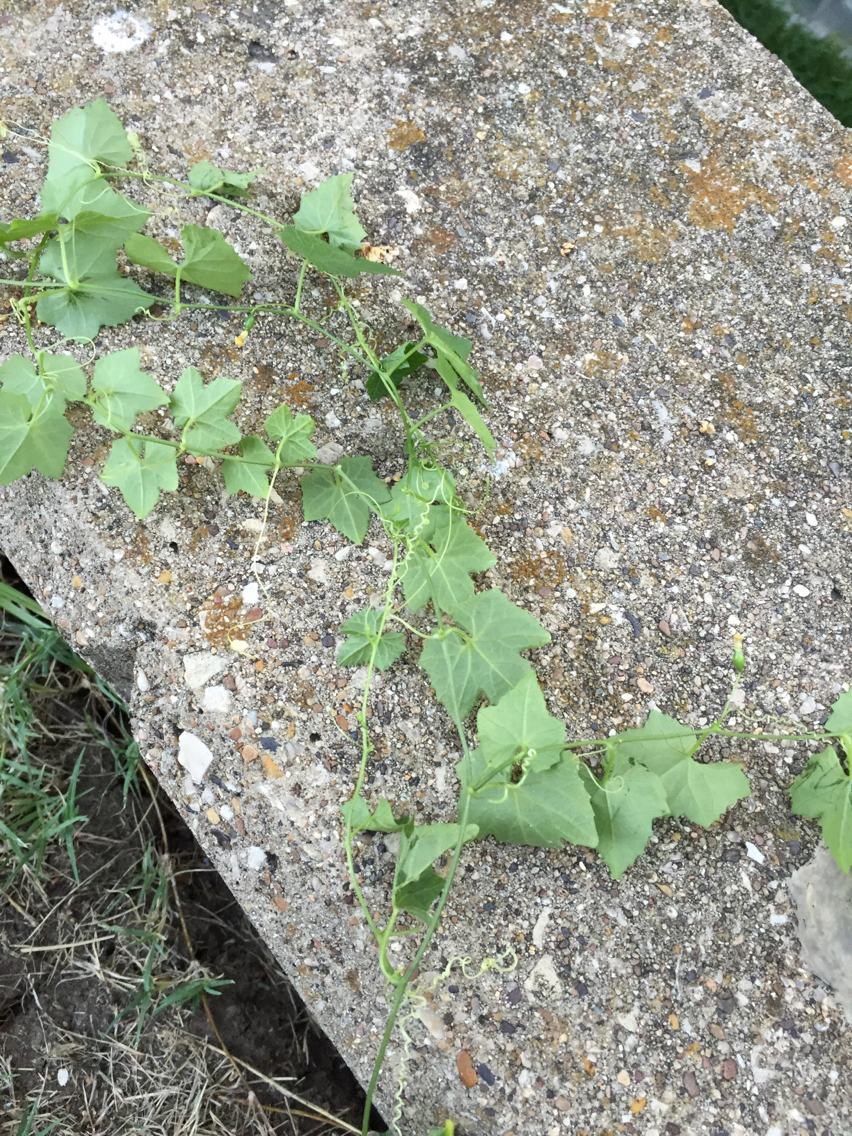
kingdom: Plantae
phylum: Tracheophyta
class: Magnoliopsida
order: Cucurbitales
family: Cucurbitaceae
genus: Melothria
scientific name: Melothria pendula
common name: Creeping-cucumber
